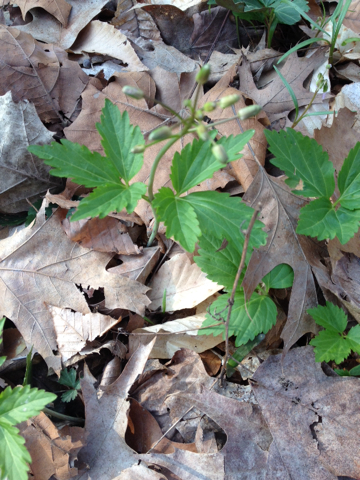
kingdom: Plantae
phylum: Tracheophyta
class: Magnoliopsida
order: Brassicales
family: Brassicaceae
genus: Cardamine
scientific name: Cardamine diphylla
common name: Broad-leaved toothwort
